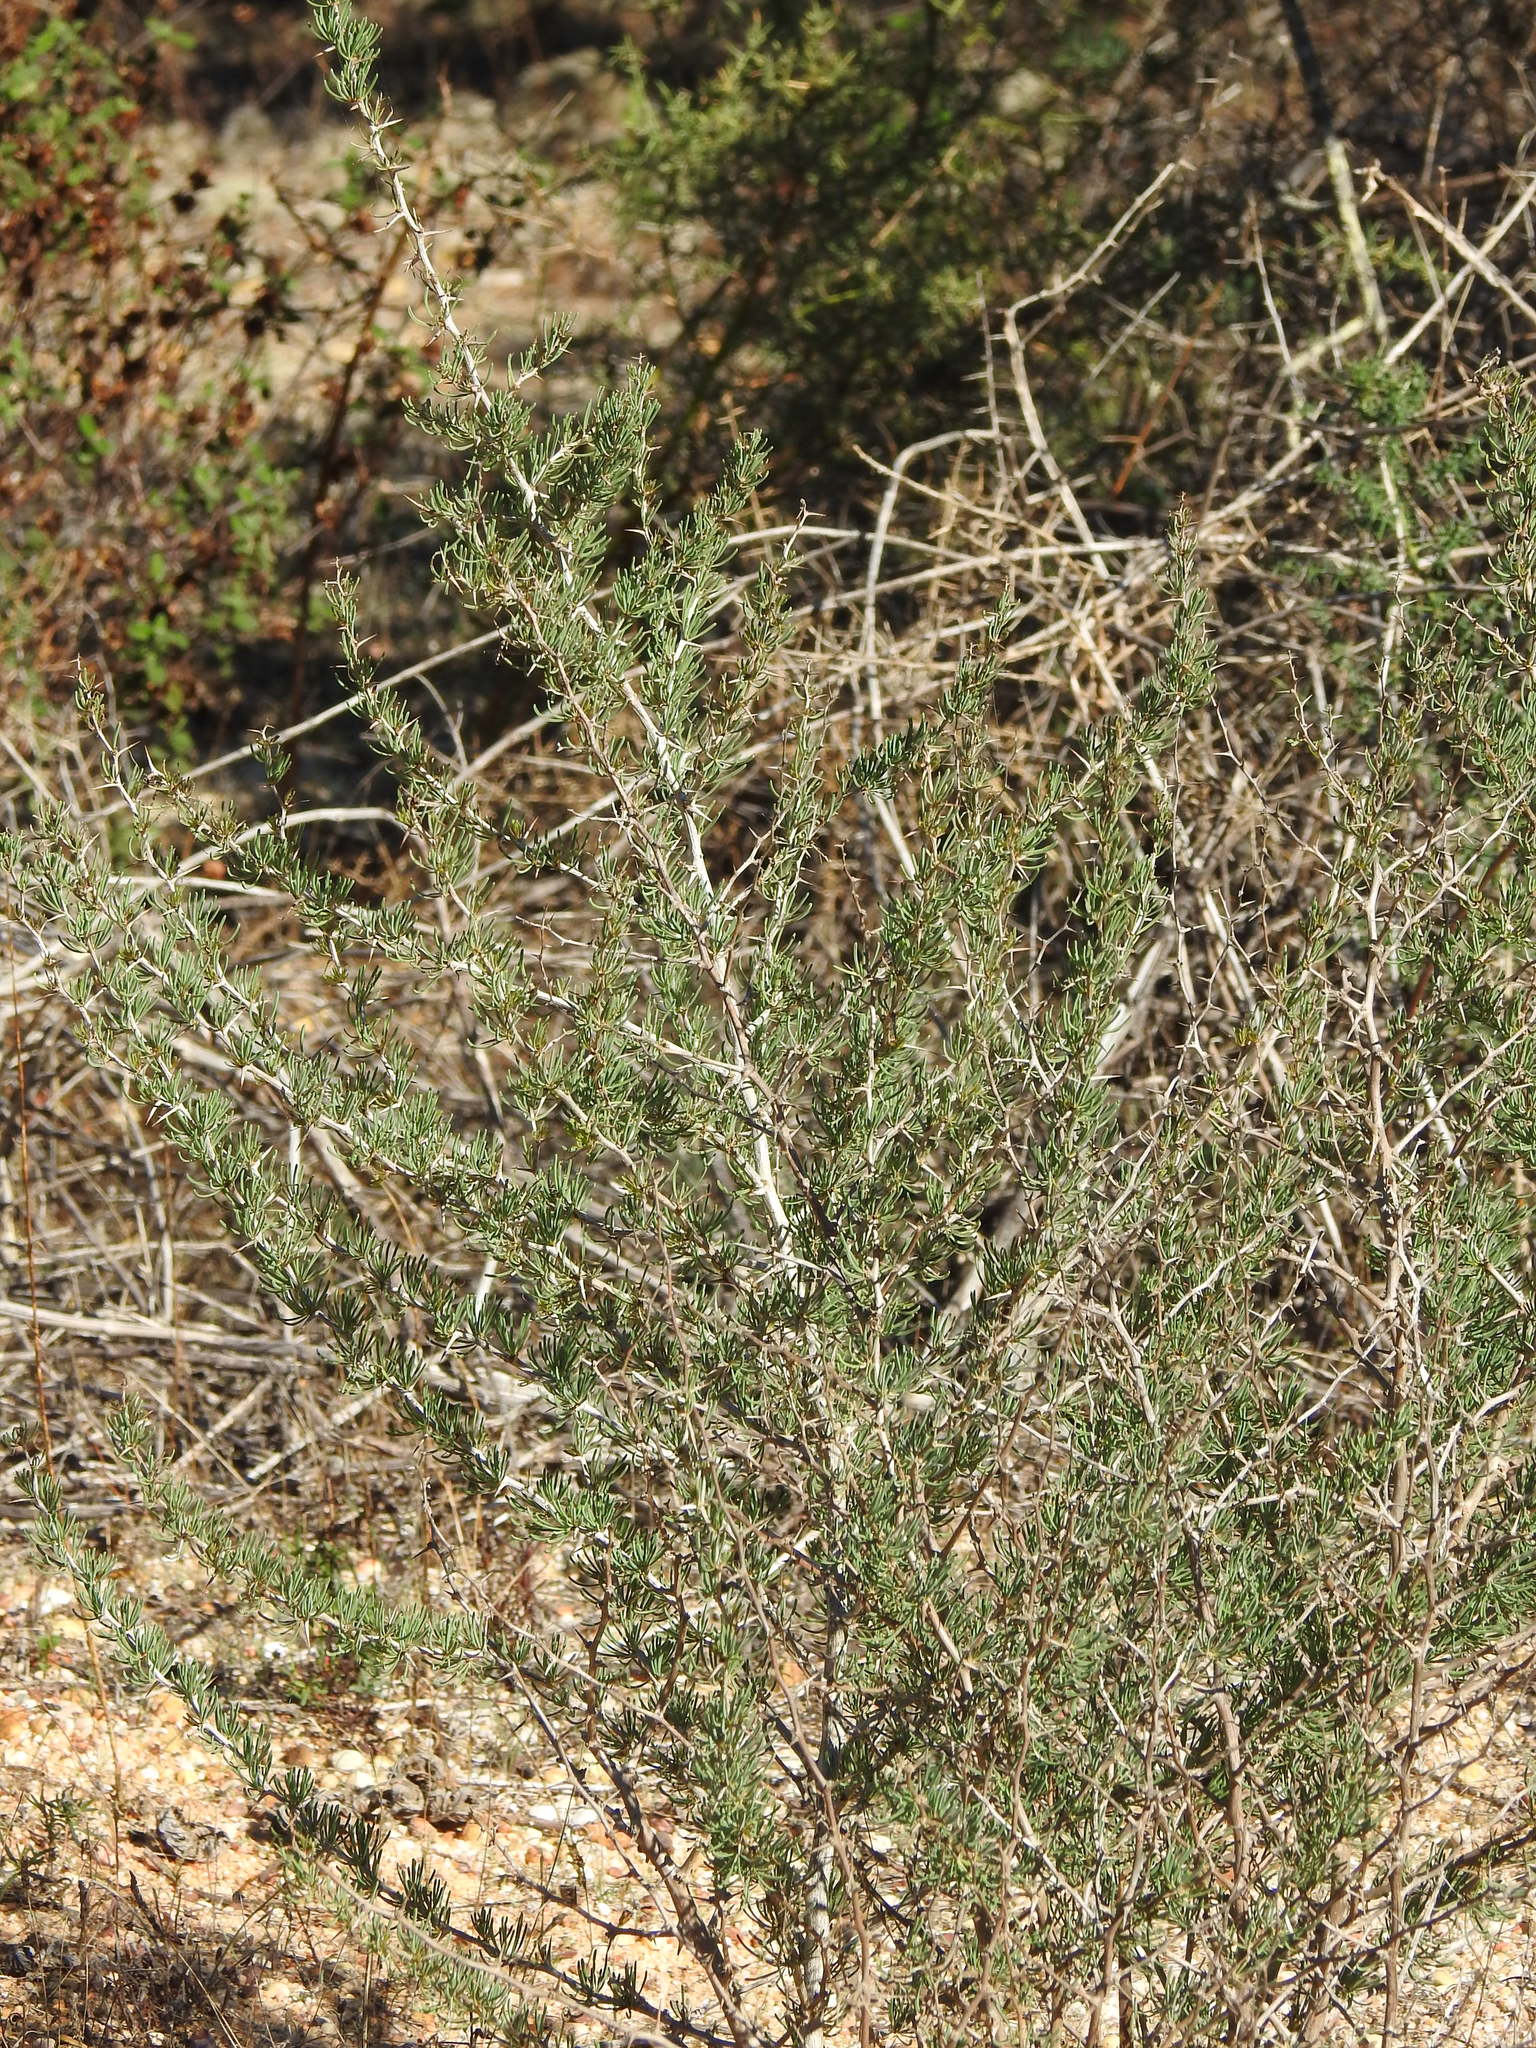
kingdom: Plantae
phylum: Tracheophyta
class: Liliopsida
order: Asparagales
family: Asparagaceae
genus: Asparagus
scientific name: Asparagus albus
